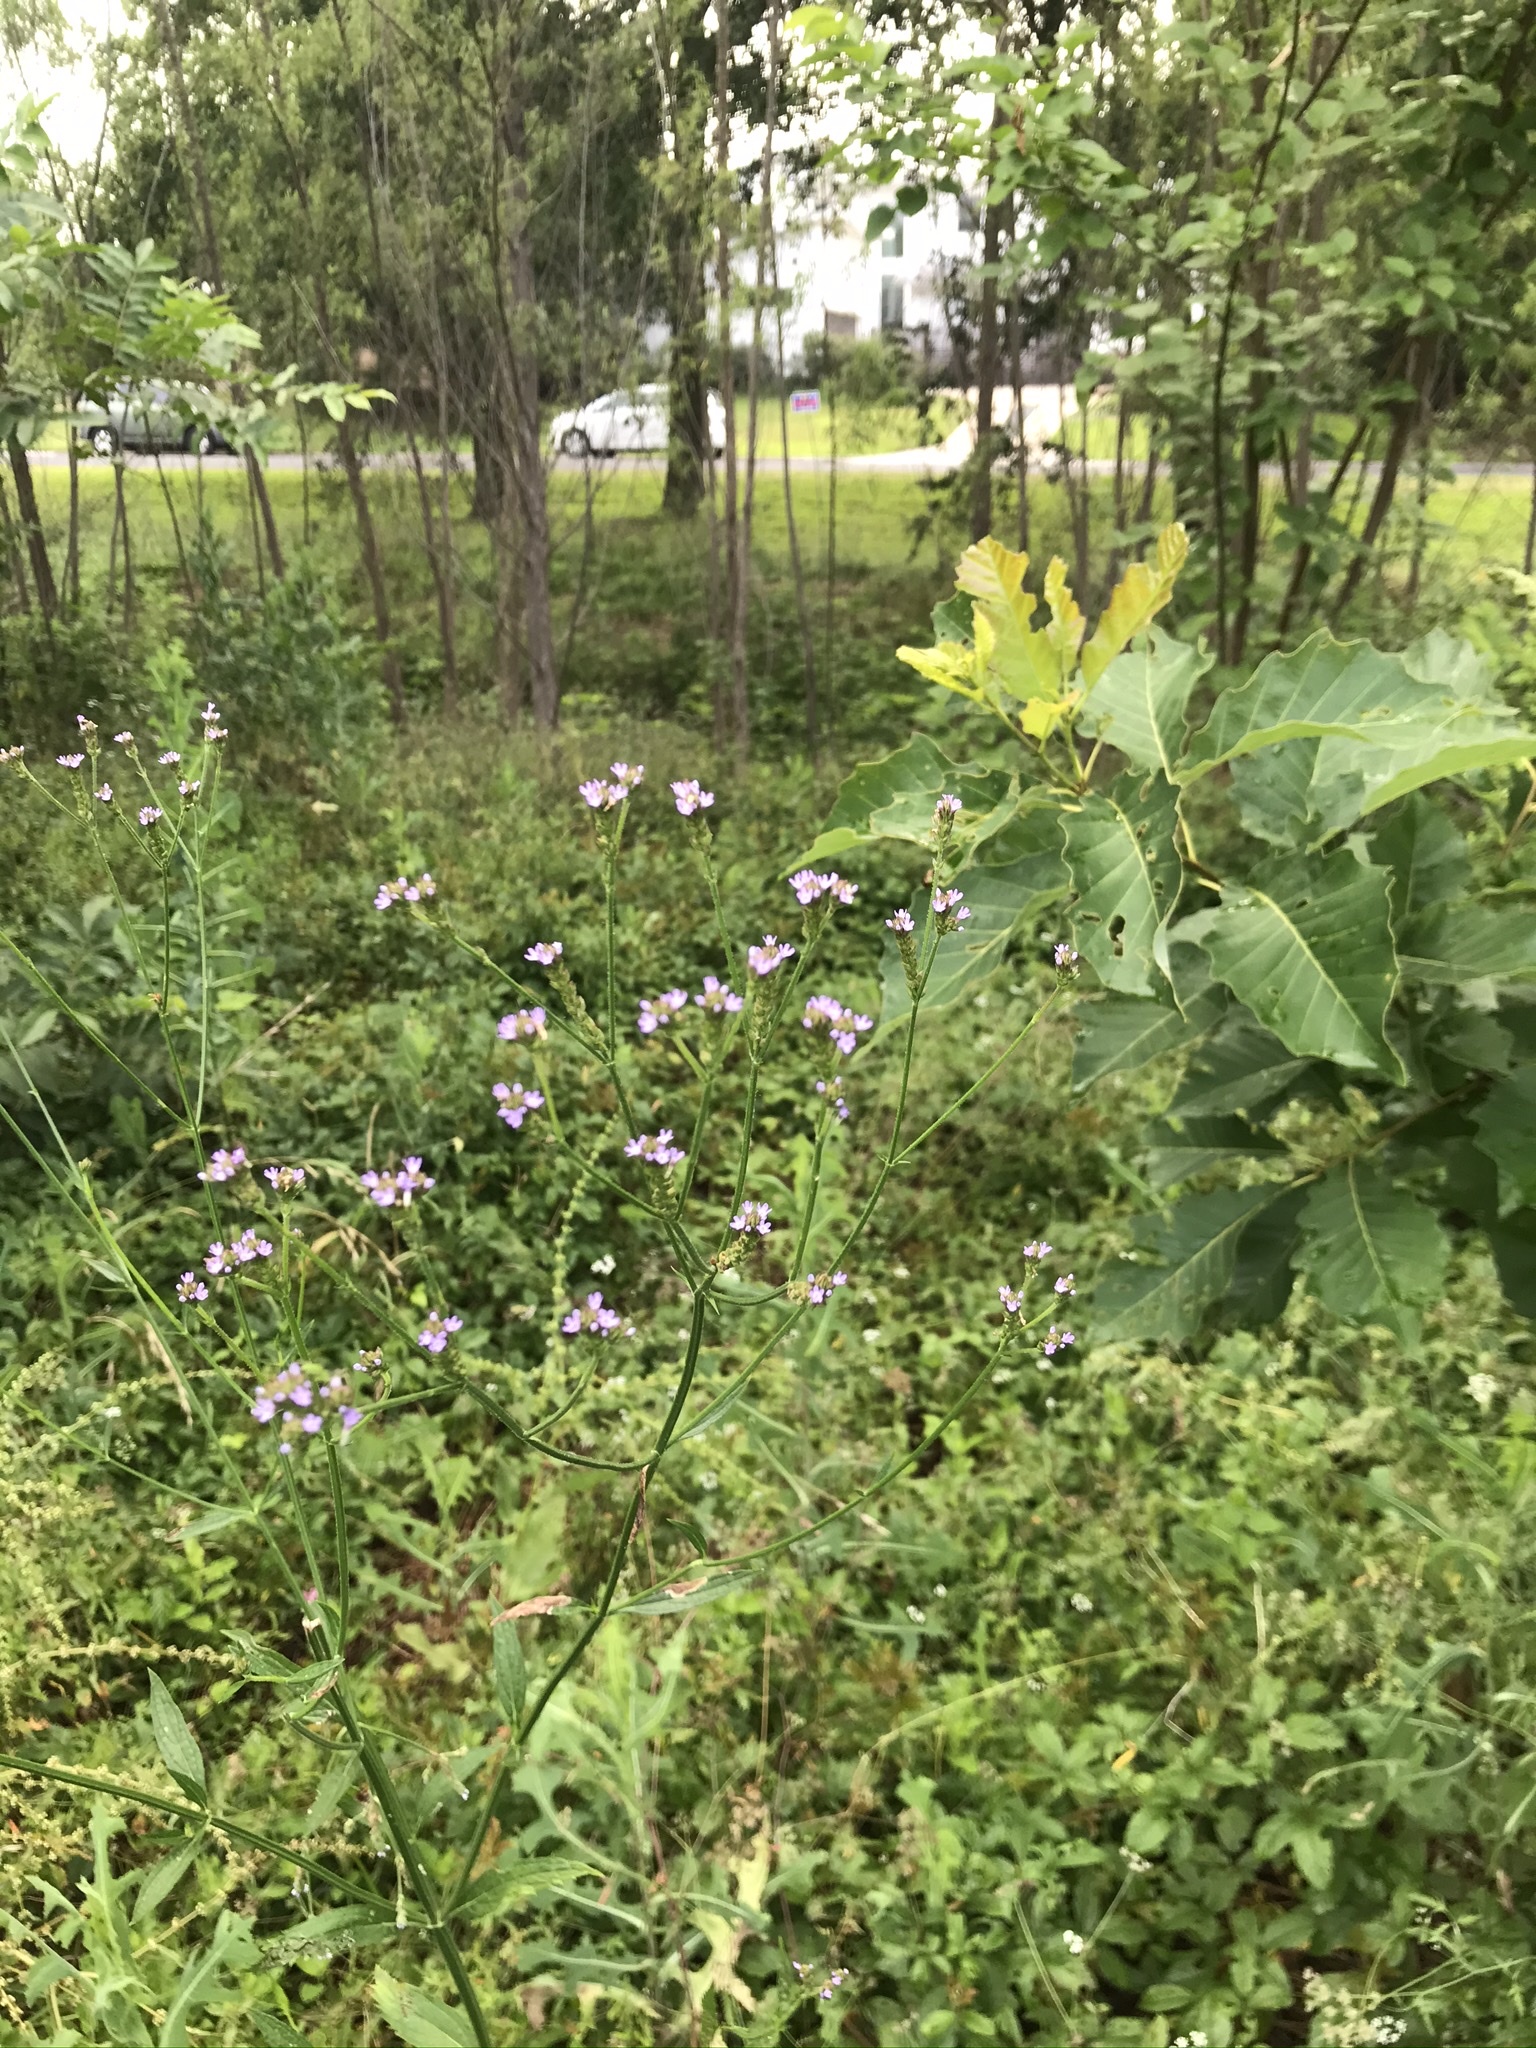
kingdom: Plantae
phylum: Tracheophyta
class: Magnoliopsida
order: Lamiales
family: Verbenaceae
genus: Verbena
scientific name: Verbena brasiliensis
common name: Brazilian vervain
